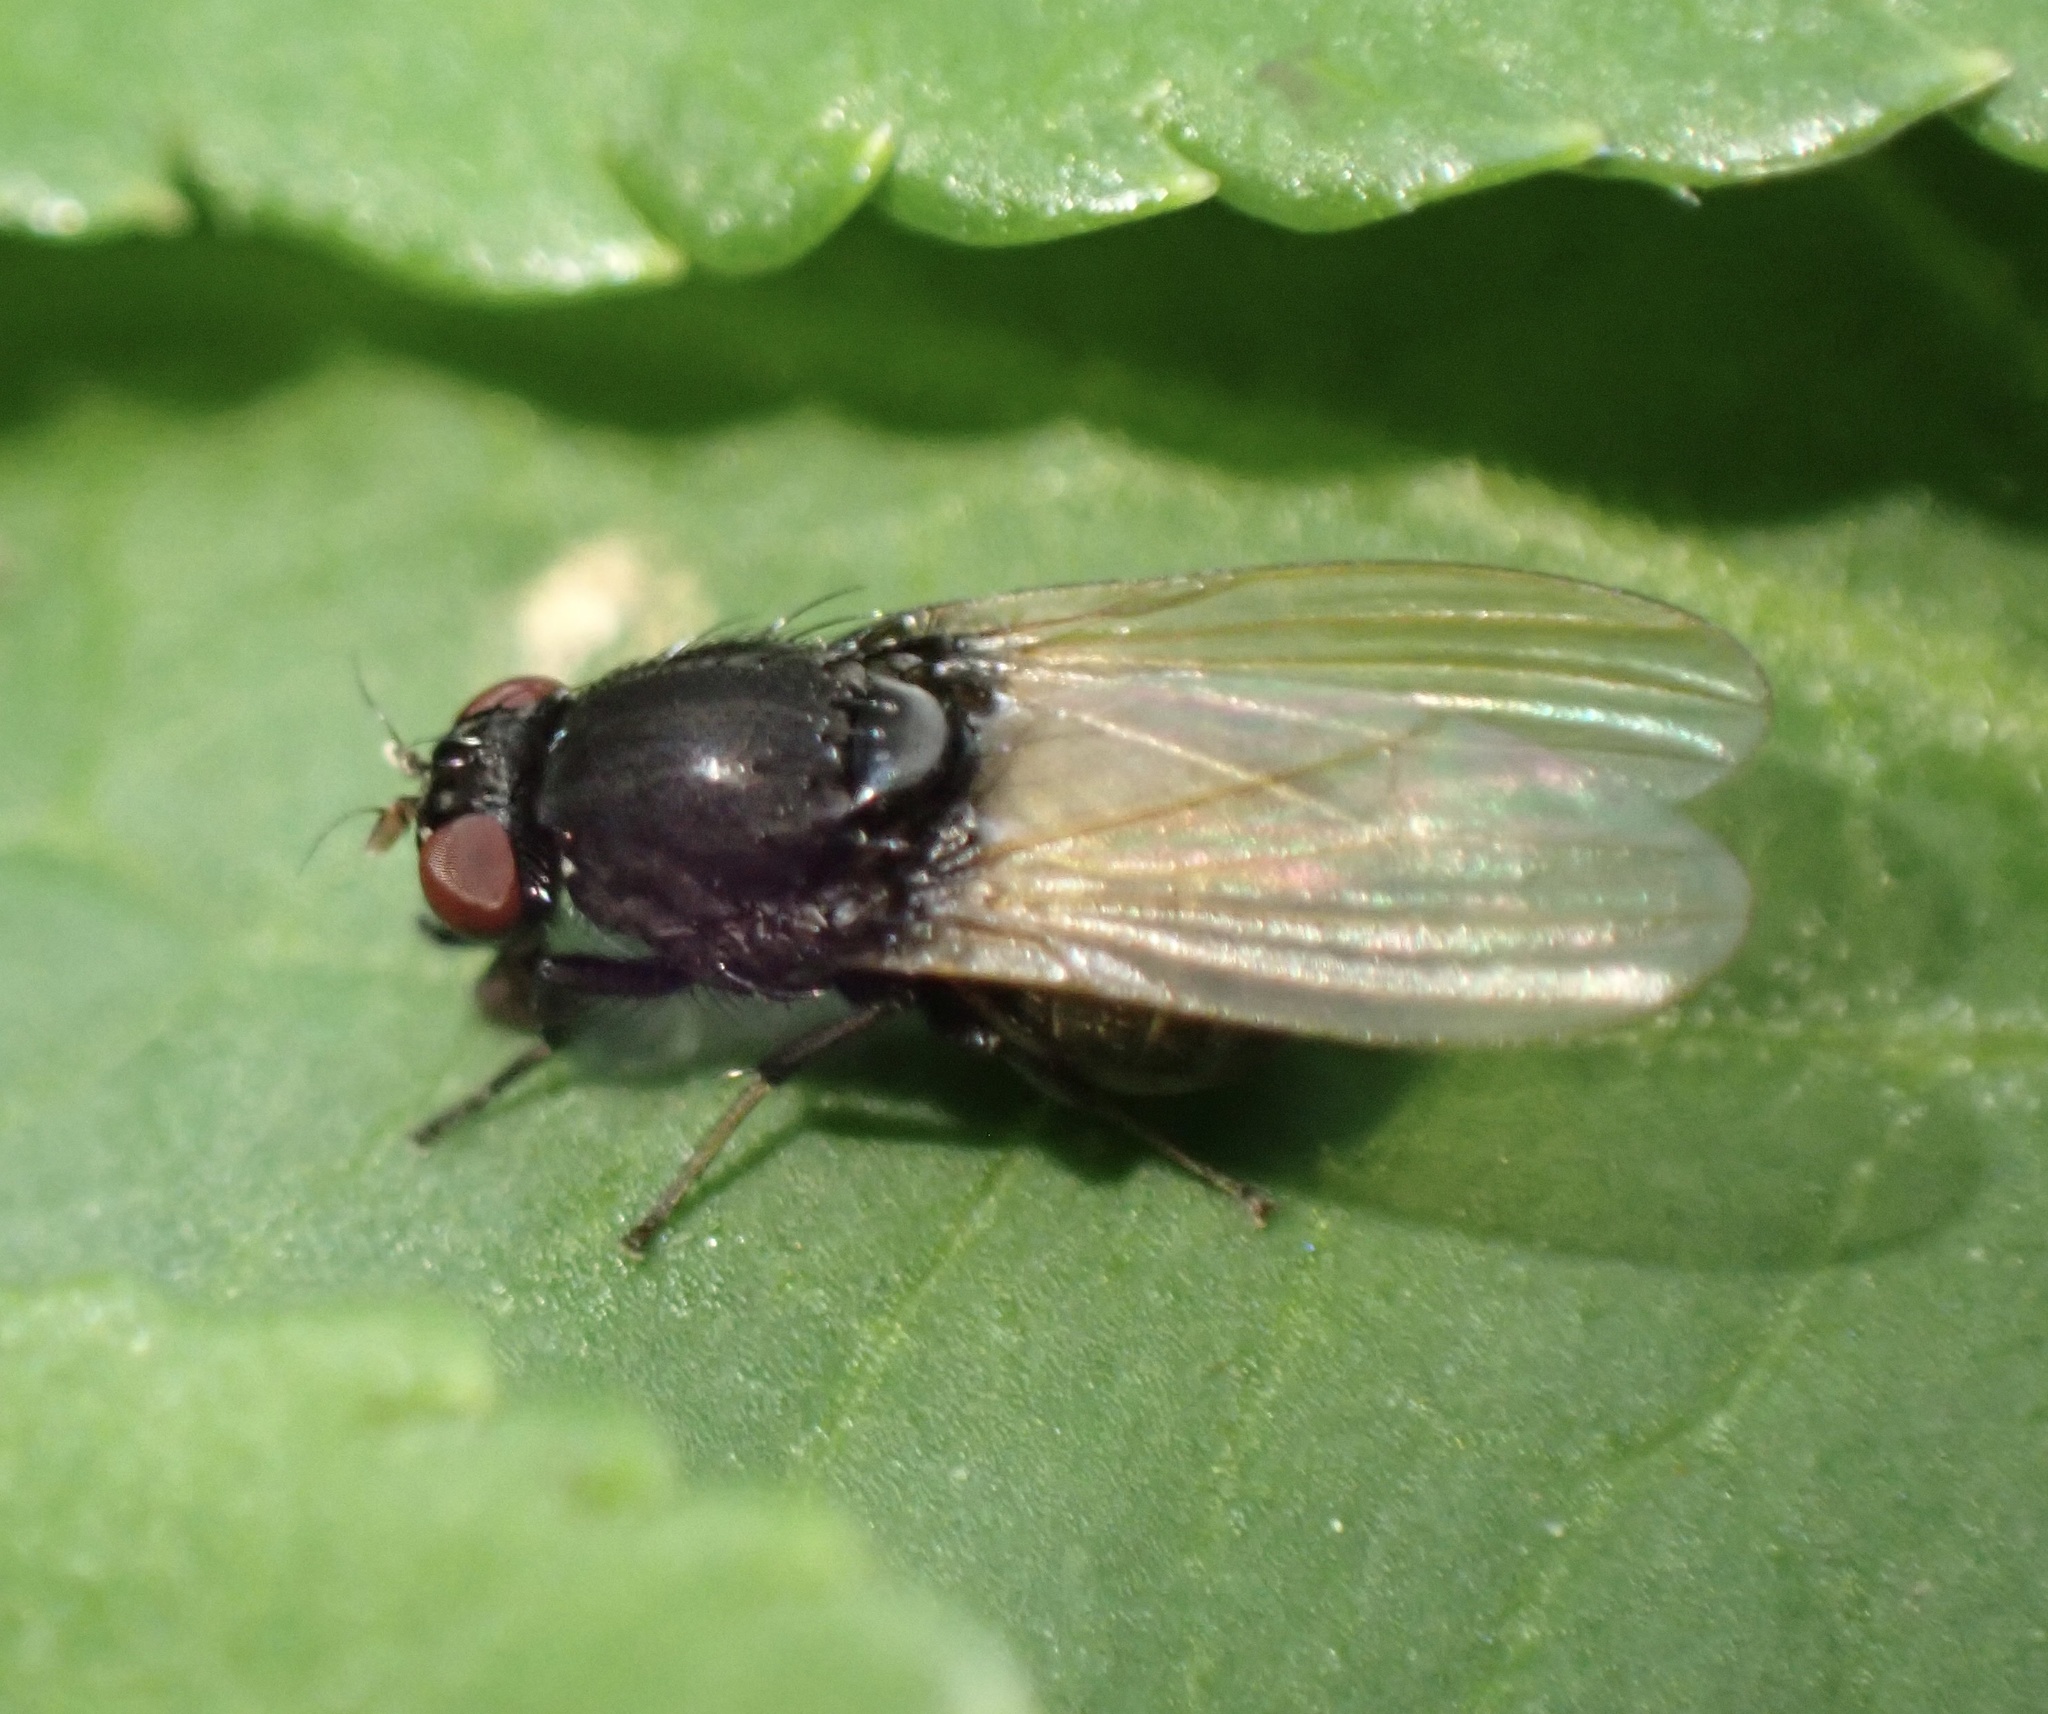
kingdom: Animalia
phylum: Arthropoda
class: Insecta
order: Diptera
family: Lauxaniidae
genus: Minettia
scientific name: Minettia longipennis
